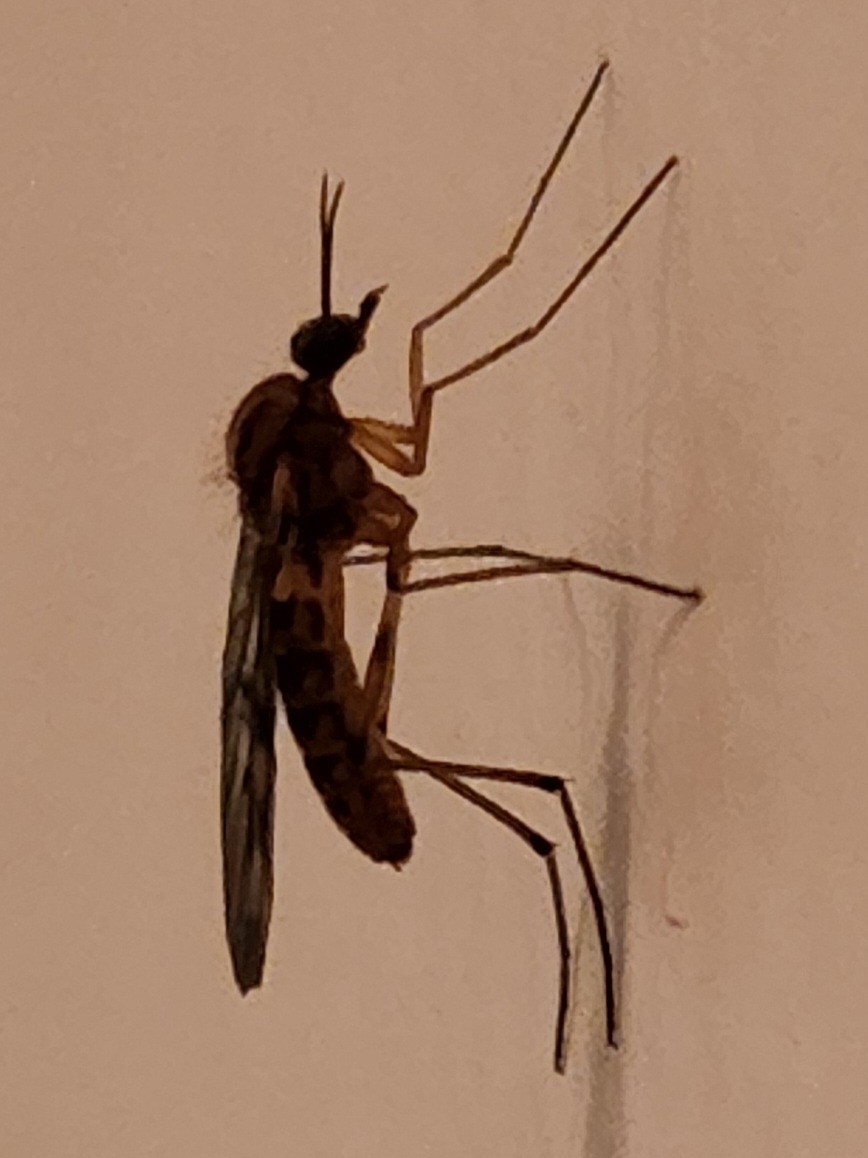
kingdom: Animalia
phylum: Arthropoda
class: Insecta
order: Diptera
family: Anisopodidae
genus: Sylvicola
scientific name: Sylvicola fenestralis
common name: Window gnat
